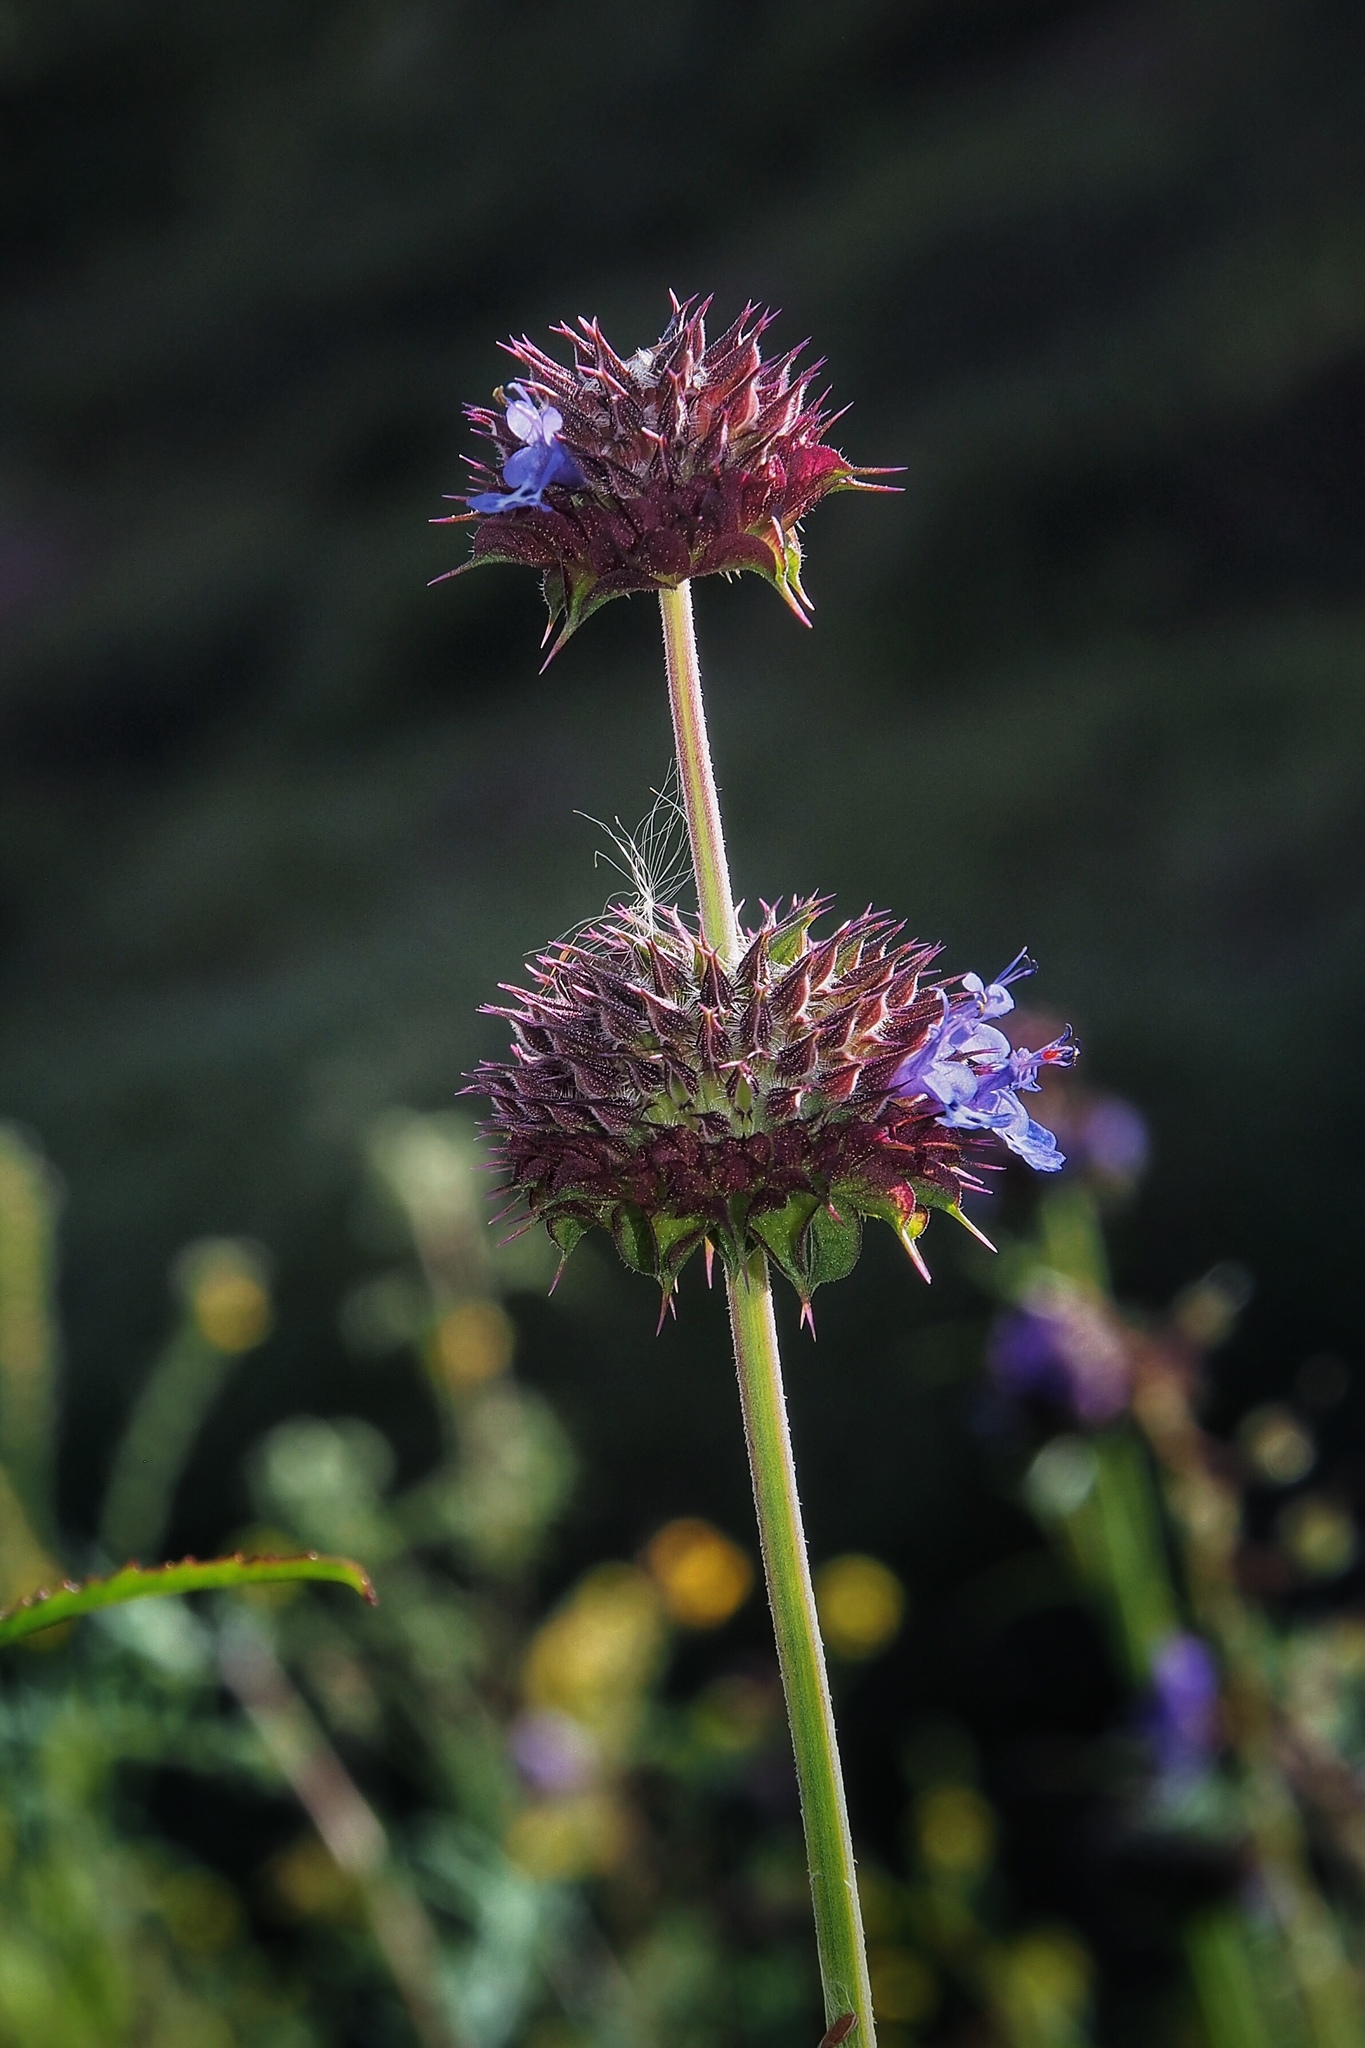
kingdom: Plantae
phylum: Tracheophyta
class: Magnoliopsida
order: Lamiales
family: Lamiaceae
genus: Salvia
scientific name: Salvia columbariae
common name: Chia
